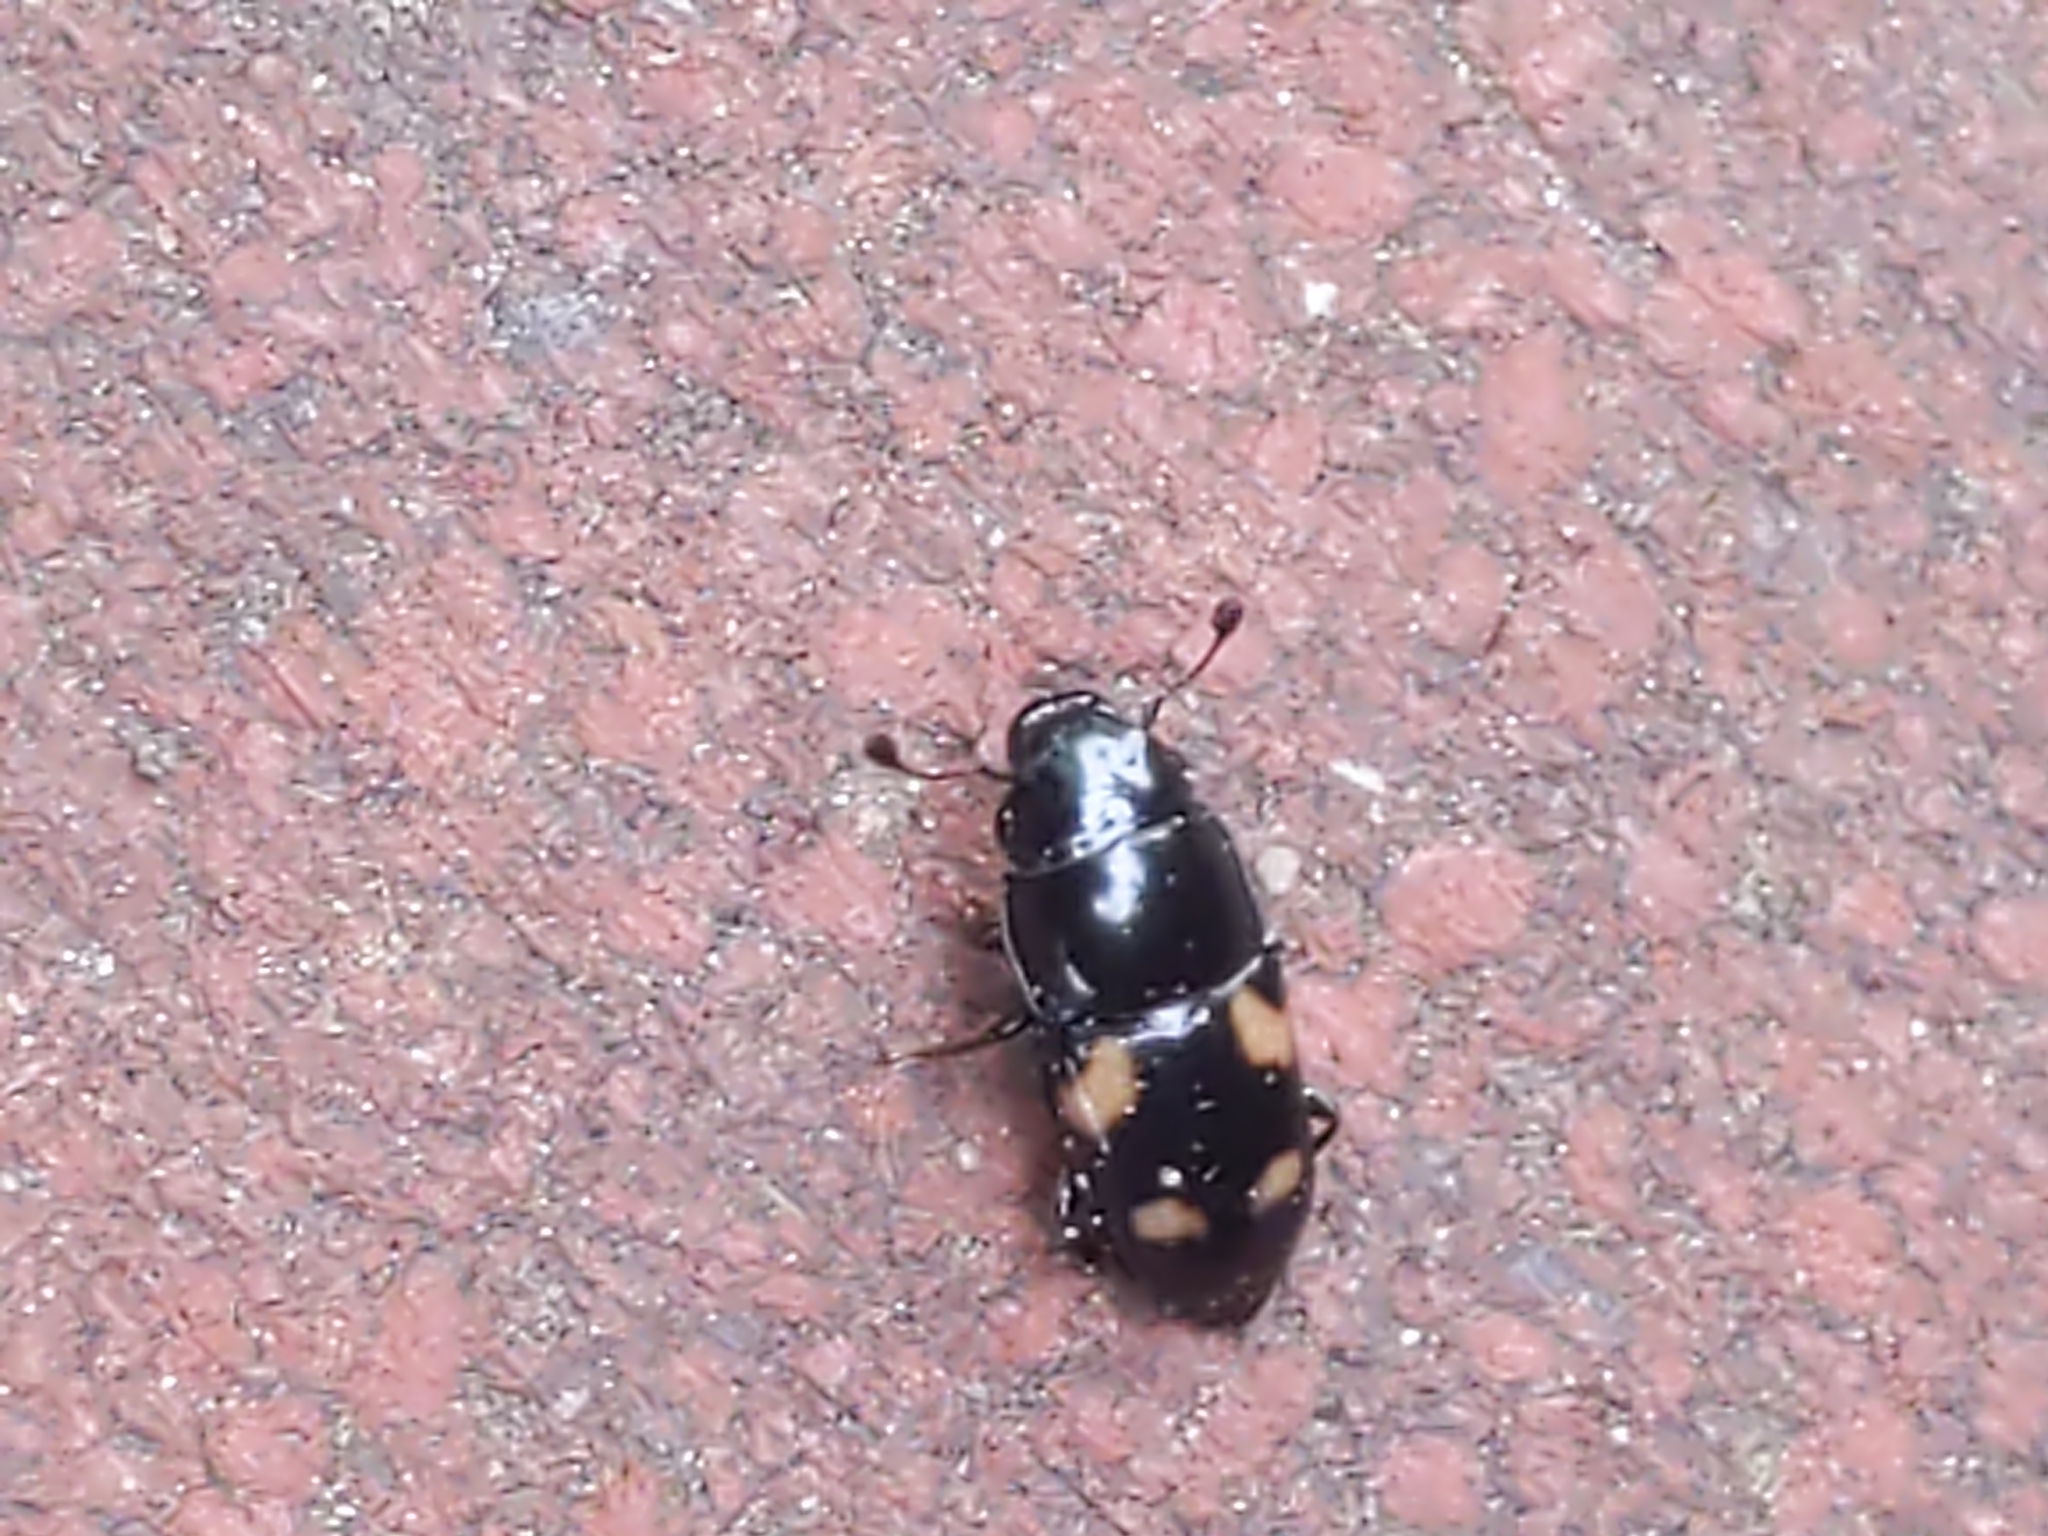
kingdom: Animalia
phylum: Arthropoda
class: Insecta
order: Coleoptera
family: Nitidulidae
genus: Glischrochilus
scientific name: Glischrochilus quadrisignatus
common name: Picnic beetle
